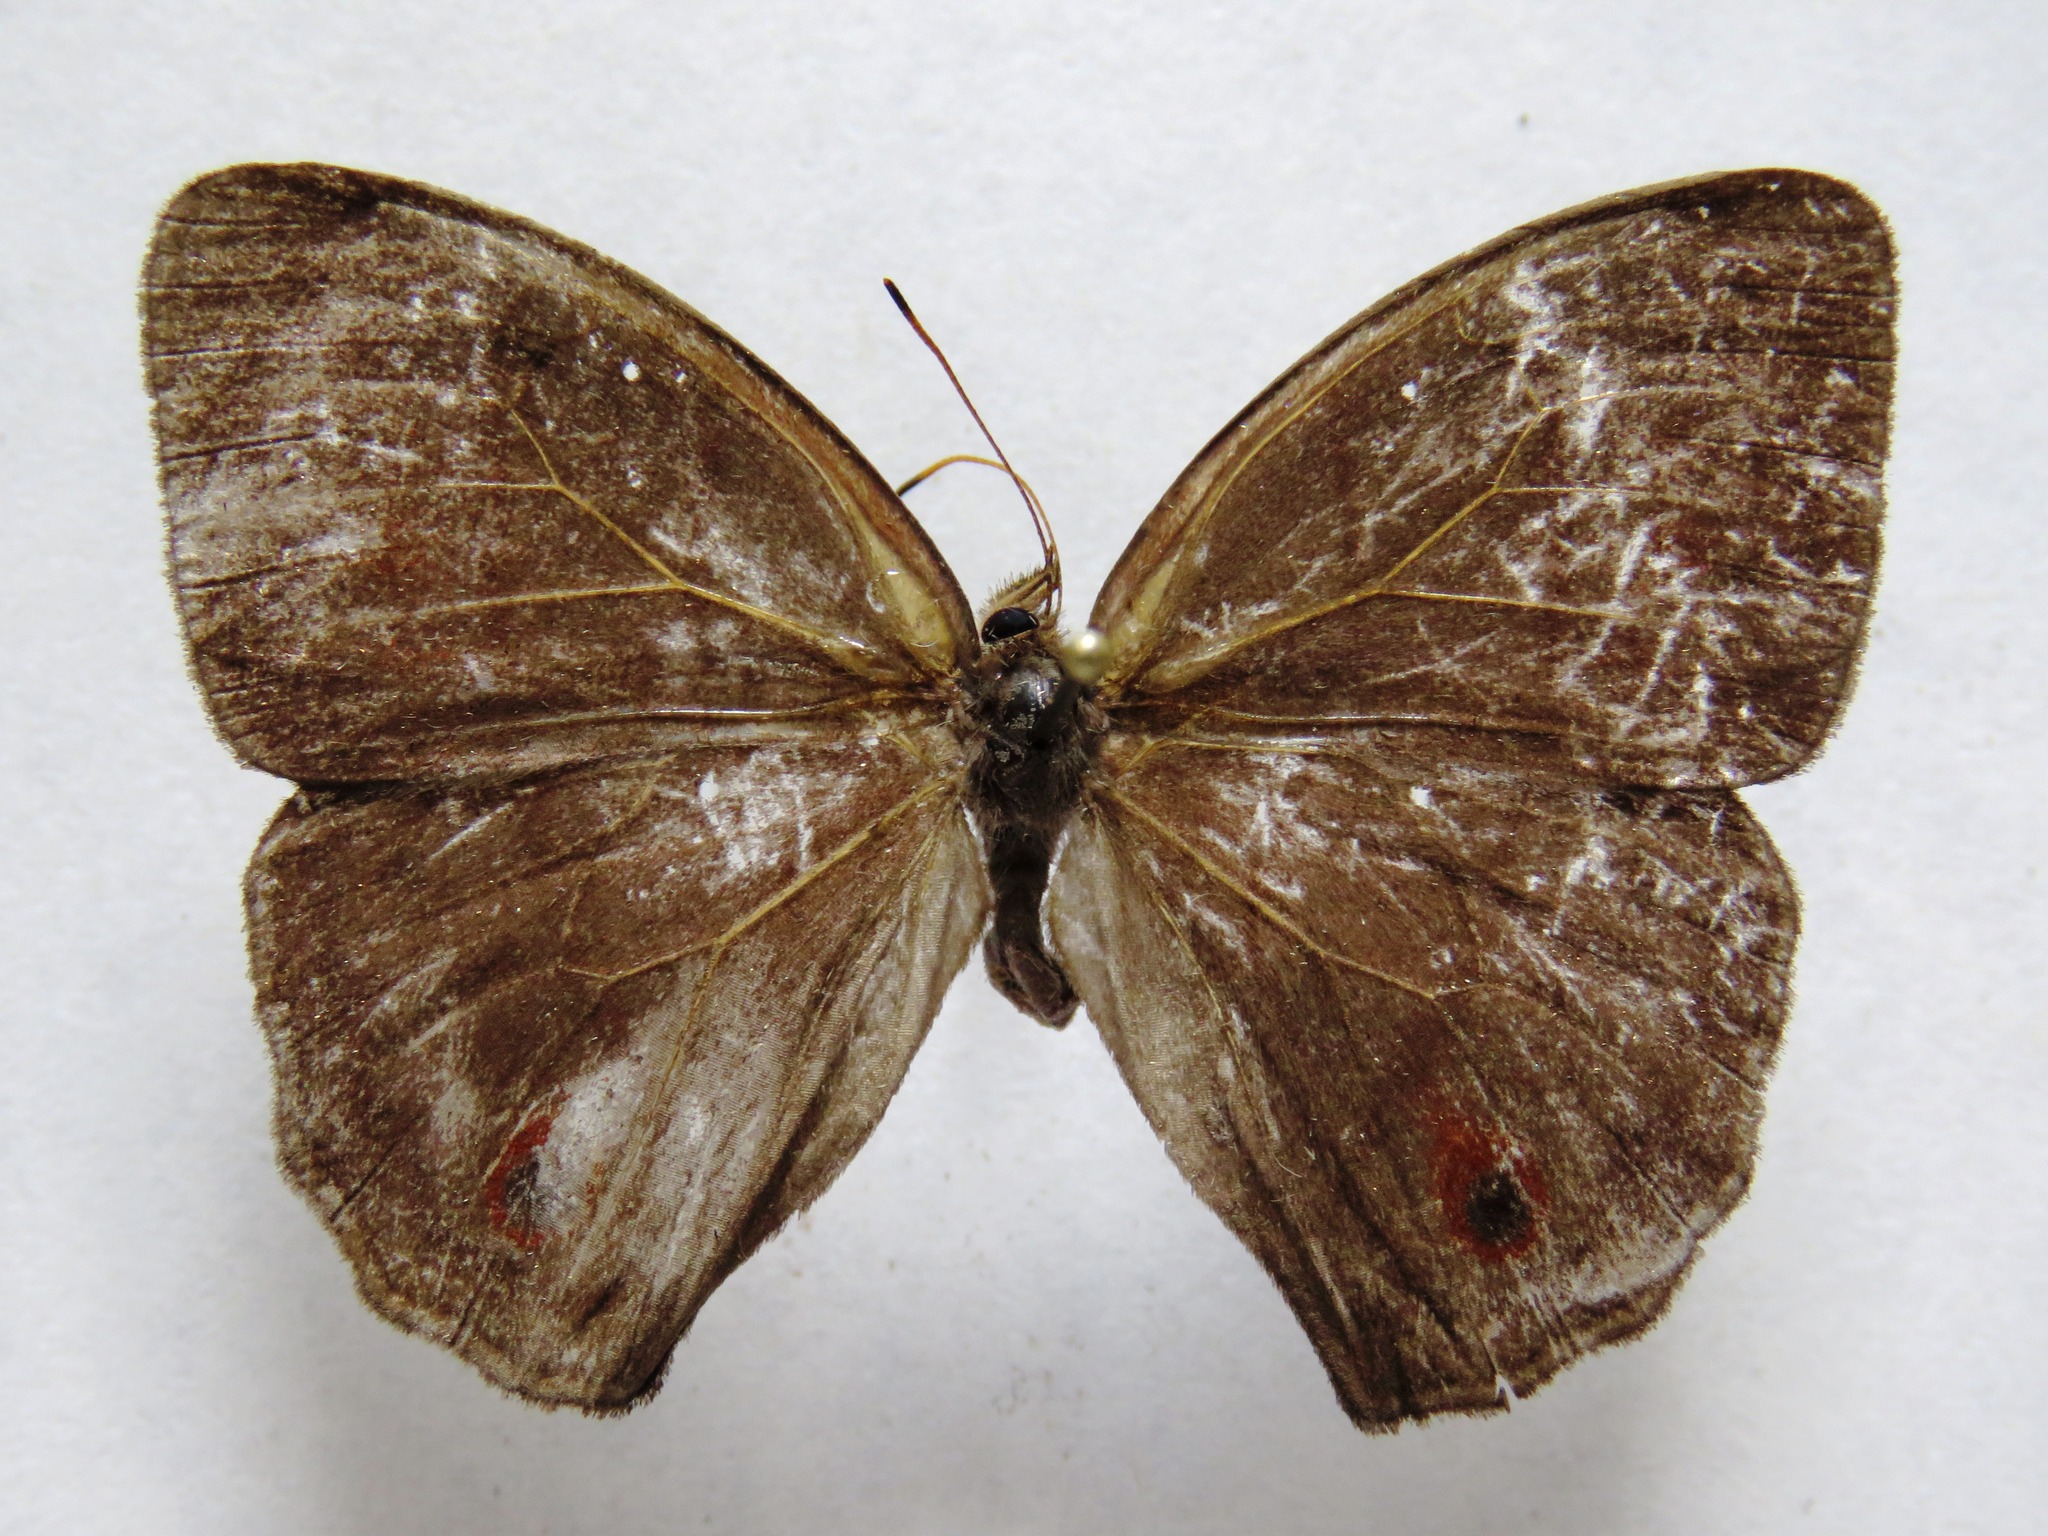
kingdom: Animalia
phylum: Arthropoda
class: Insecta
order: Lepidoptera
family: Nymphalidae
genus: Satyrotaygetis
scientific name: Satyrotaygetis satyrina
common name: Wide-bordered satyr
